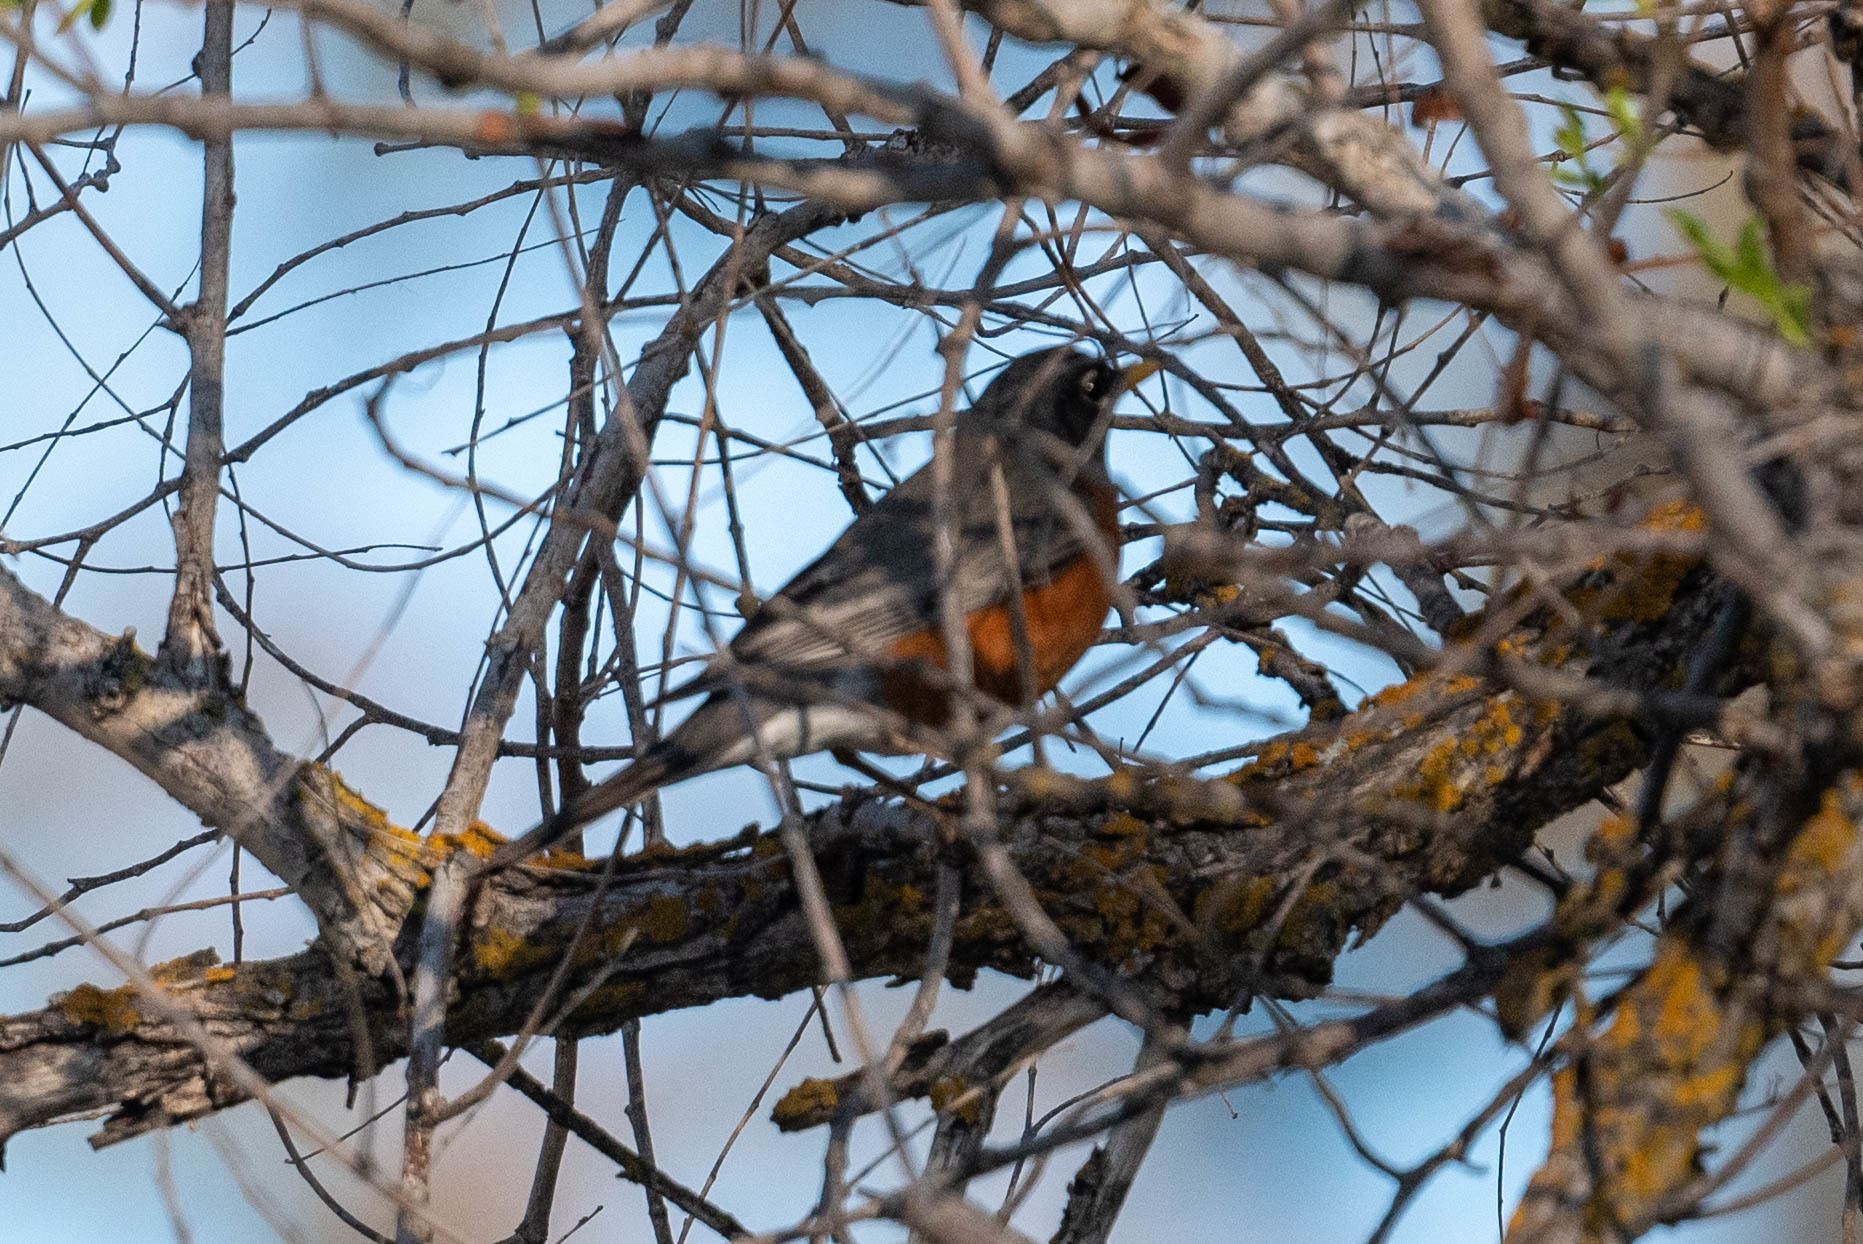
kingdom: Animalia
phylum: Chordata
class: Aves
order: Passeriformes
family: Turdidae
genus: Turdus
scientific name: Turdus migratorius
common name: American robin
